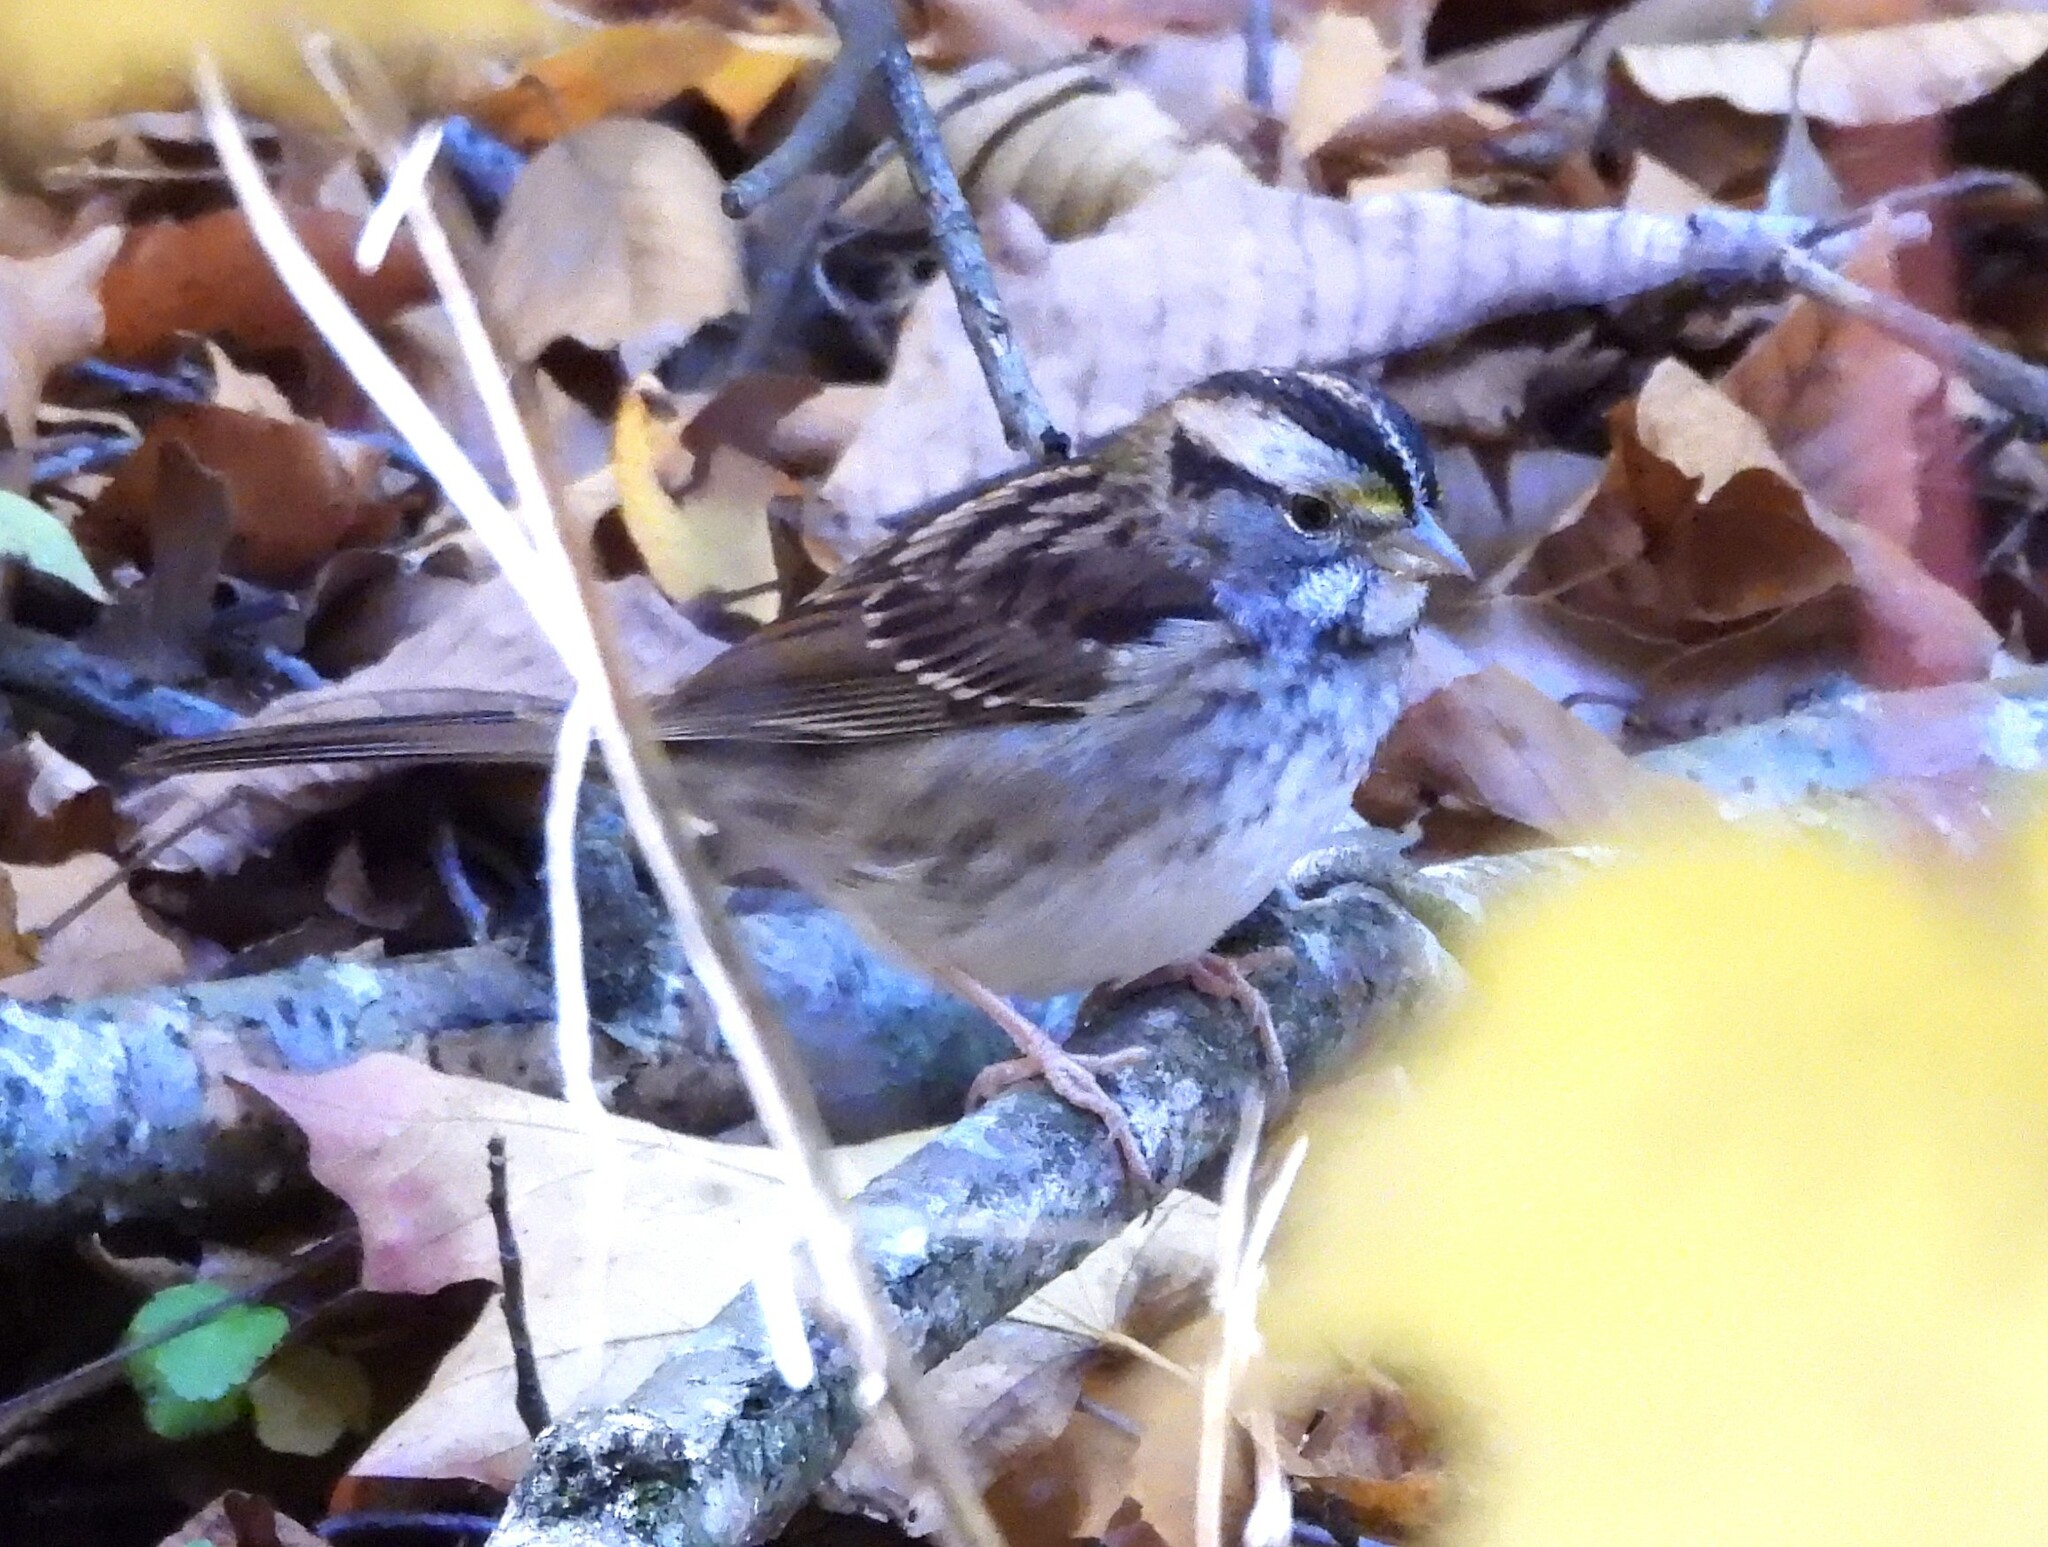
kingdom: Animalia
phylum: Chordata
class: Aves
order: Passeriformes
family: Passerellidae
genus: Zonotrichia
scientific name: Zonotrichia albicollis
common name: White-throated sparrow
